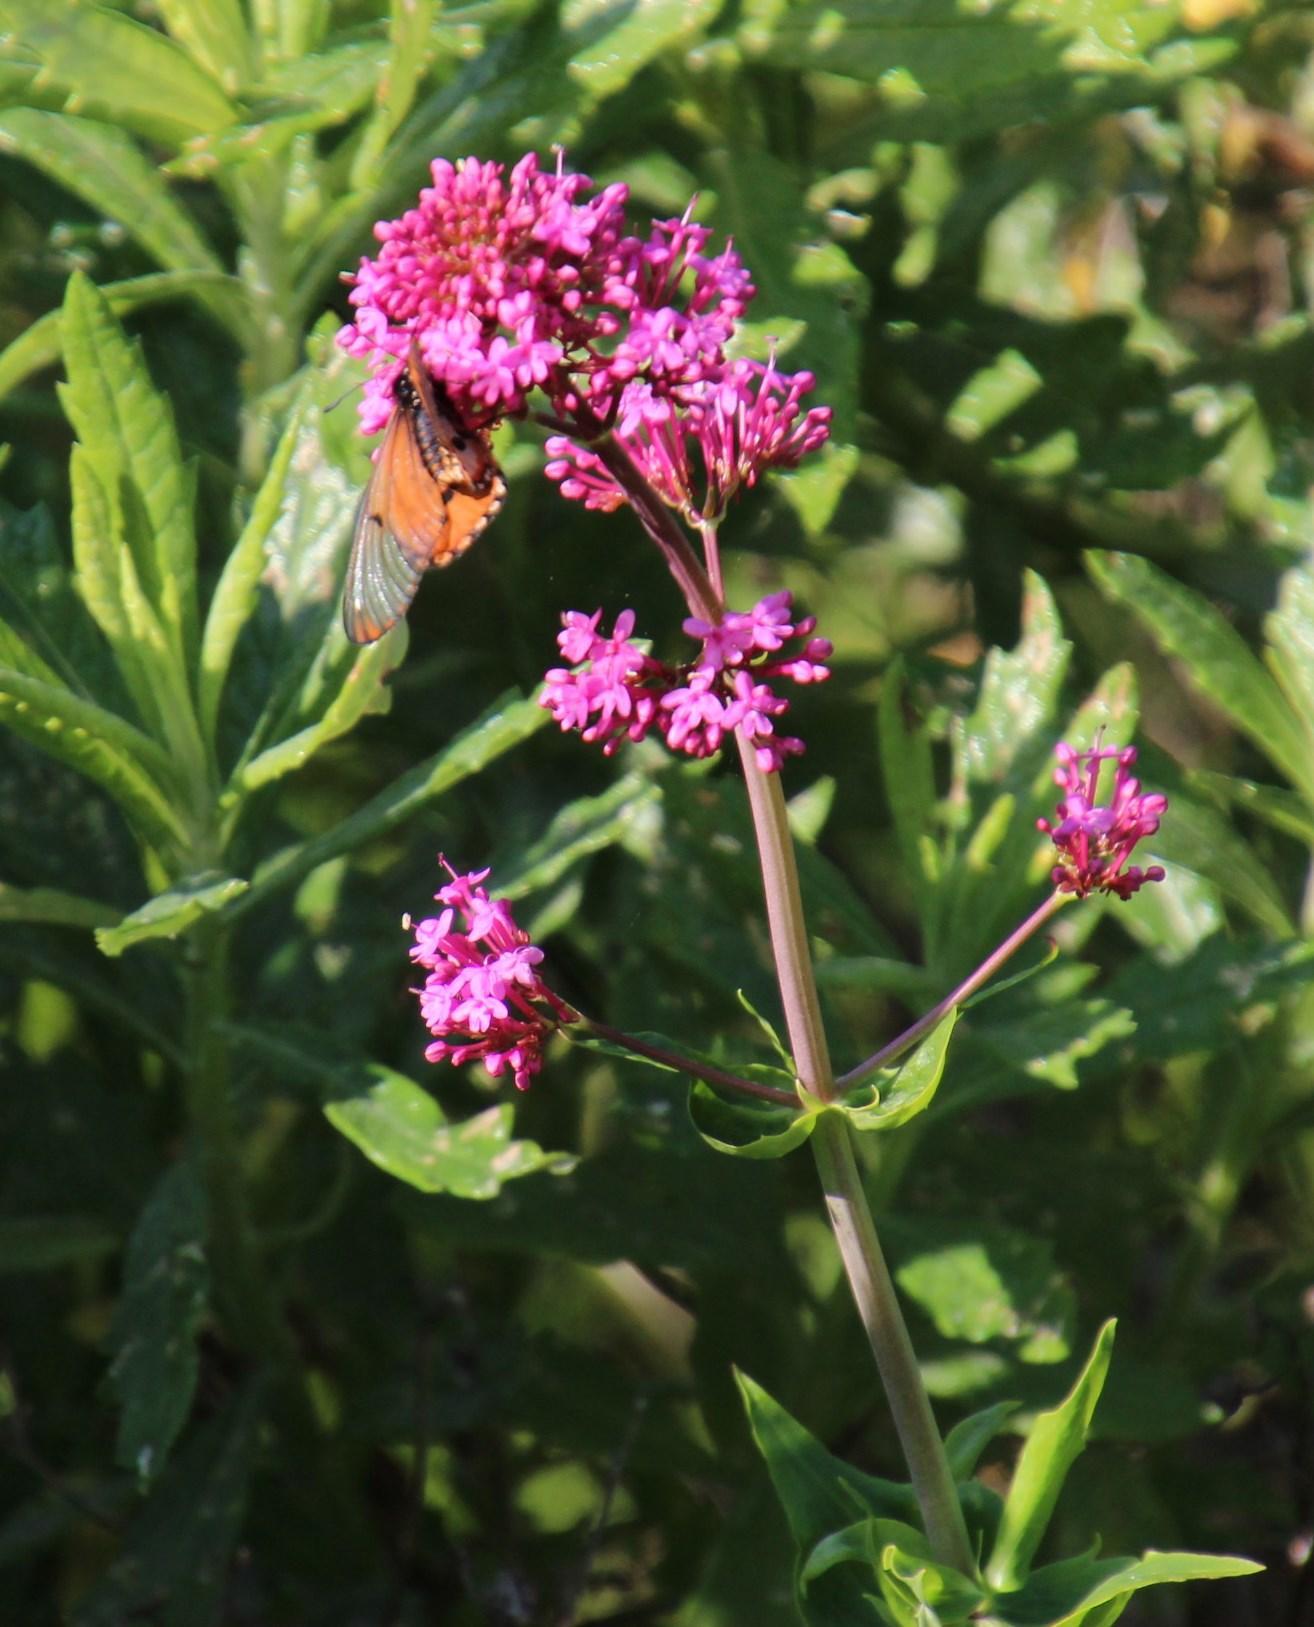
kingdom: Plantae
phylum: Tracheophyta
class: Magnoliopsida
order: Dipsacales
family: Caprifoliaceae
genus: Centranthus
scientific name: Centranthus ruber
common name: Red valerian
